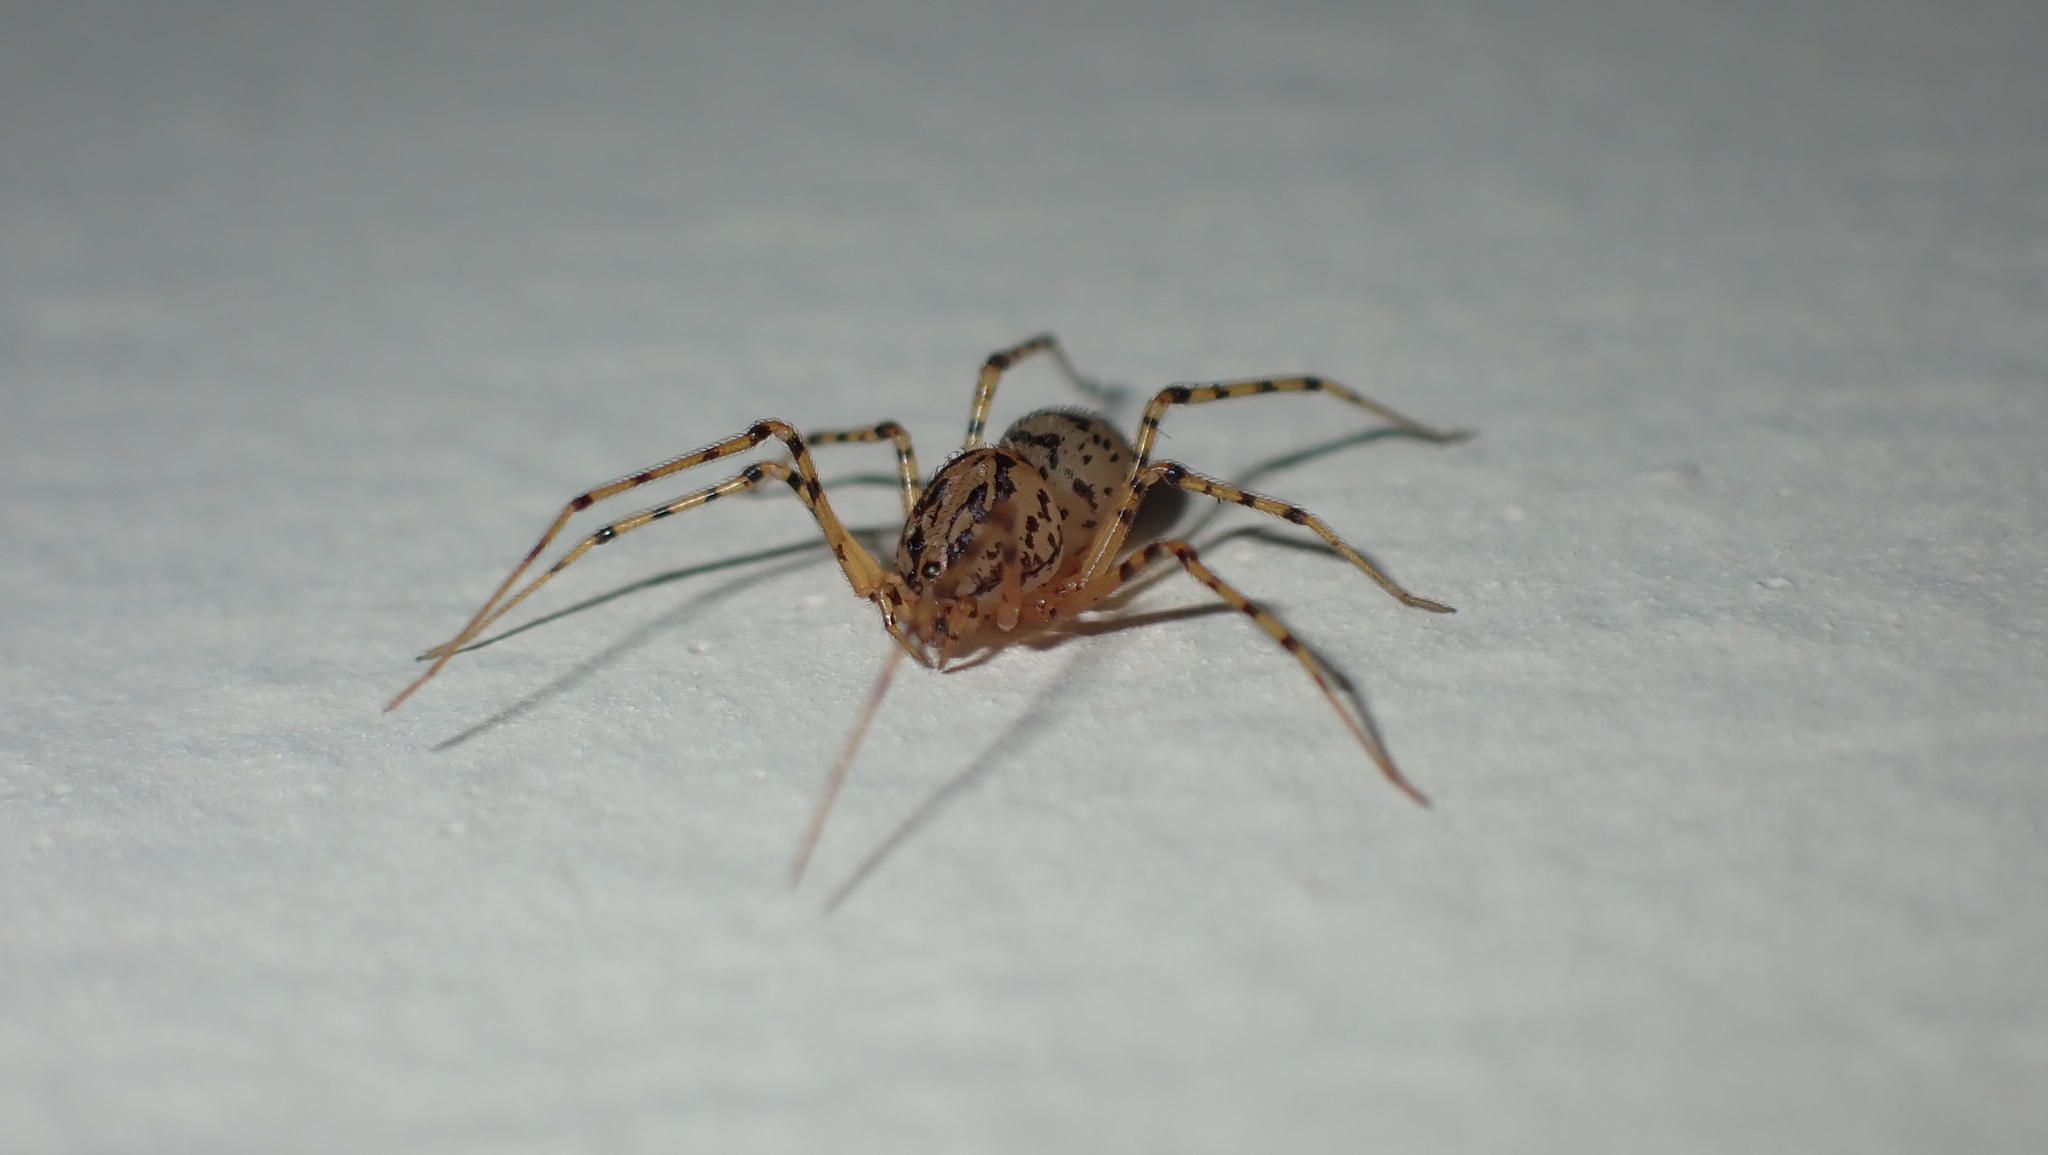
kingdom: Animalia
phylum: Arthropoda
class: Arachnida
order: Araneae
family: Scytodidae
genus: Scytodes
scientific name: Scytodes thoracica
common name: Spitting spider
